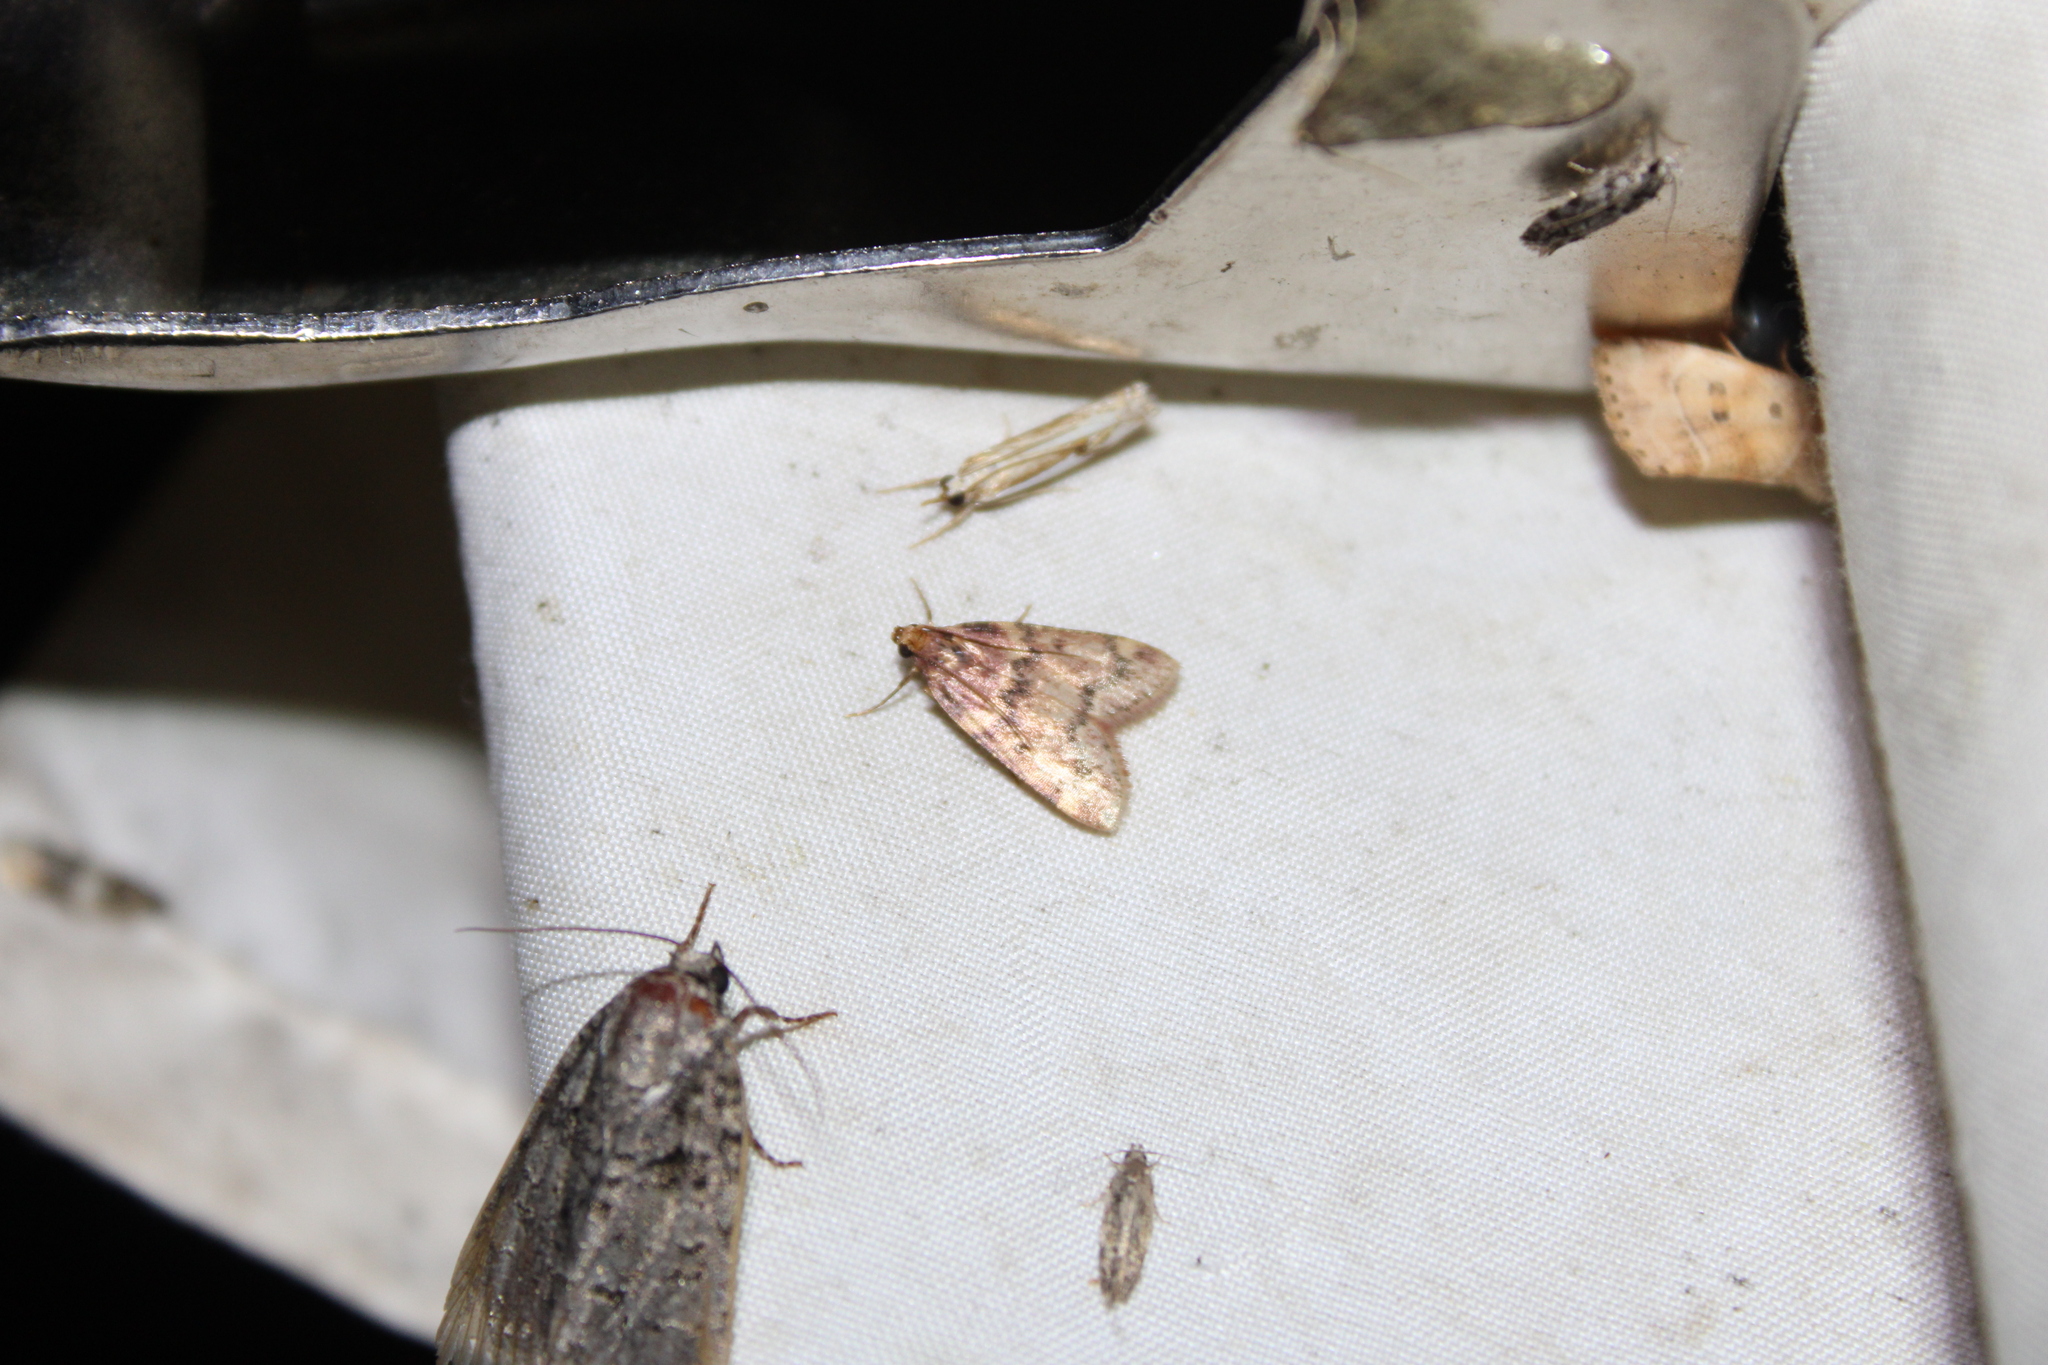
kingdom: Animalia
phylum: Arthropoda
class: Insecta
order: Lepidoptera
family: Pyralidae
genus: Aglossa
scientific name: Aglossa disciferalis
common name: Pink-masked pyralid moth
